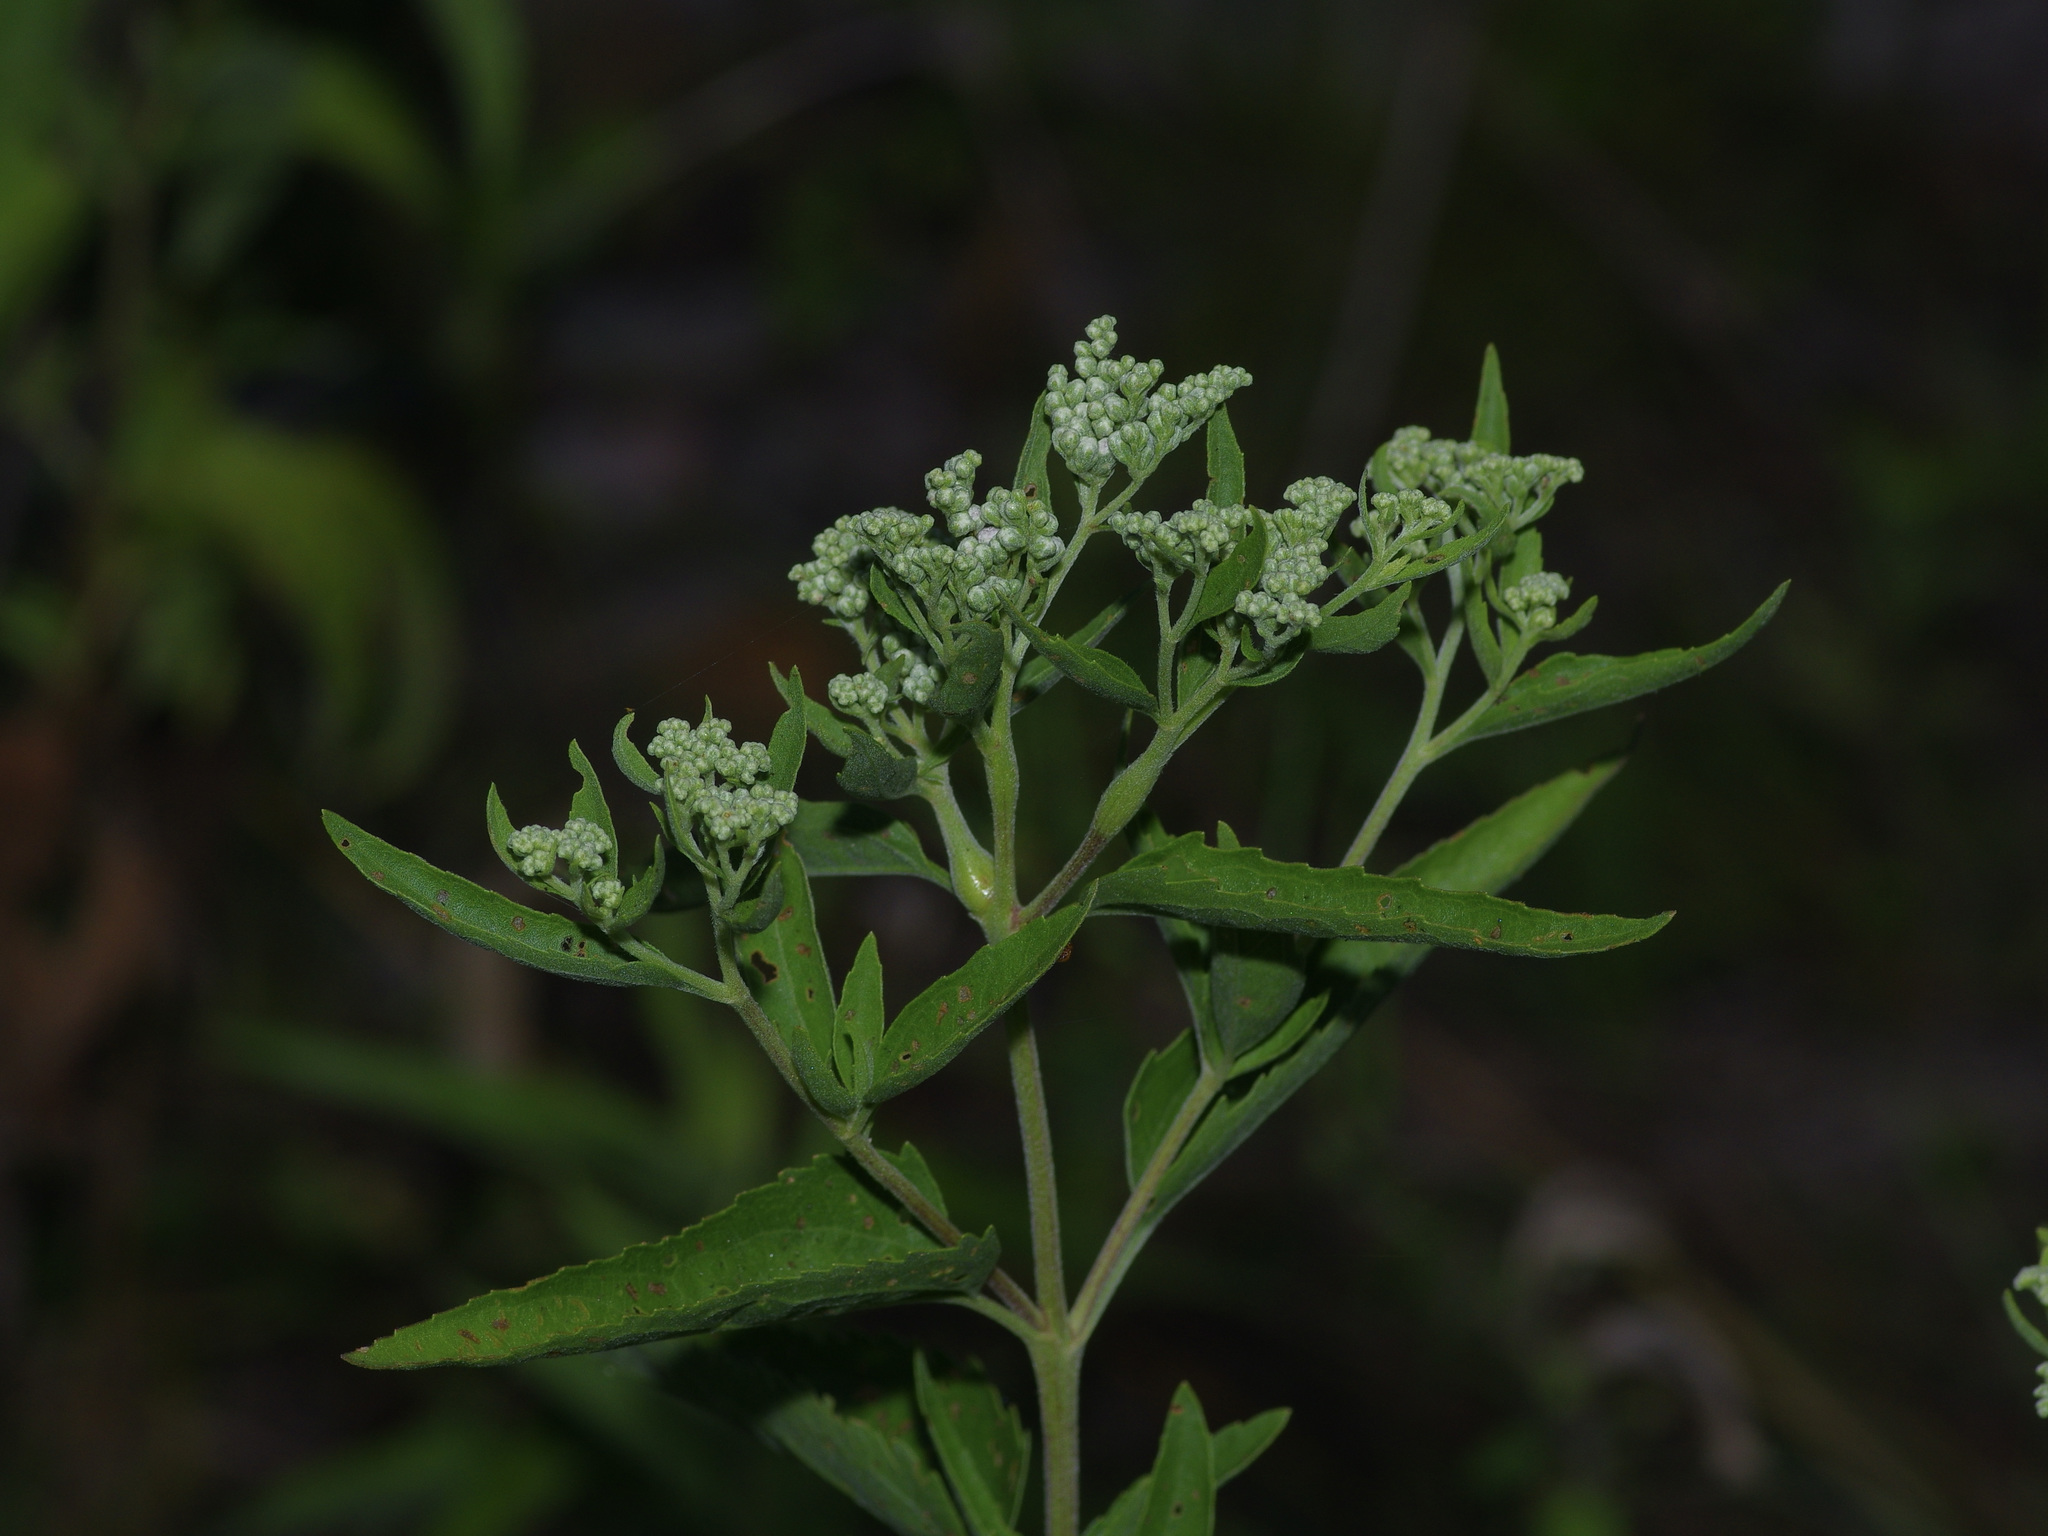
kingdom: Plantae
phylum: Tracheophyta
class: Magnoliopsida
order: Asterales
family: Asteraceae
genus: Eupatorium
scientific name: Eupatorium serotinum
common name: Late boneset
